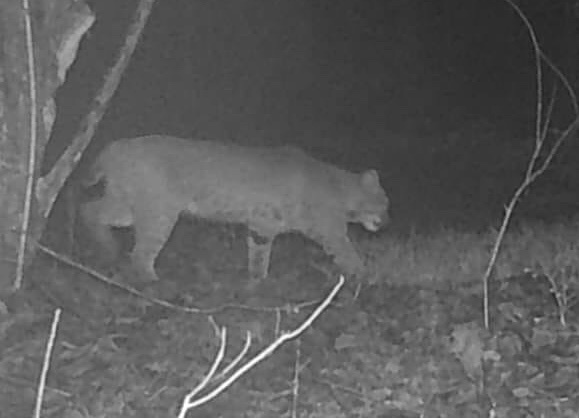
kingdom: Animalia
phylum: Chordata
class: Mammalia
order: Carnivora
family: Felidae
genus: Lynx
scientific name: Lynx rufus
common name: Bobcat
